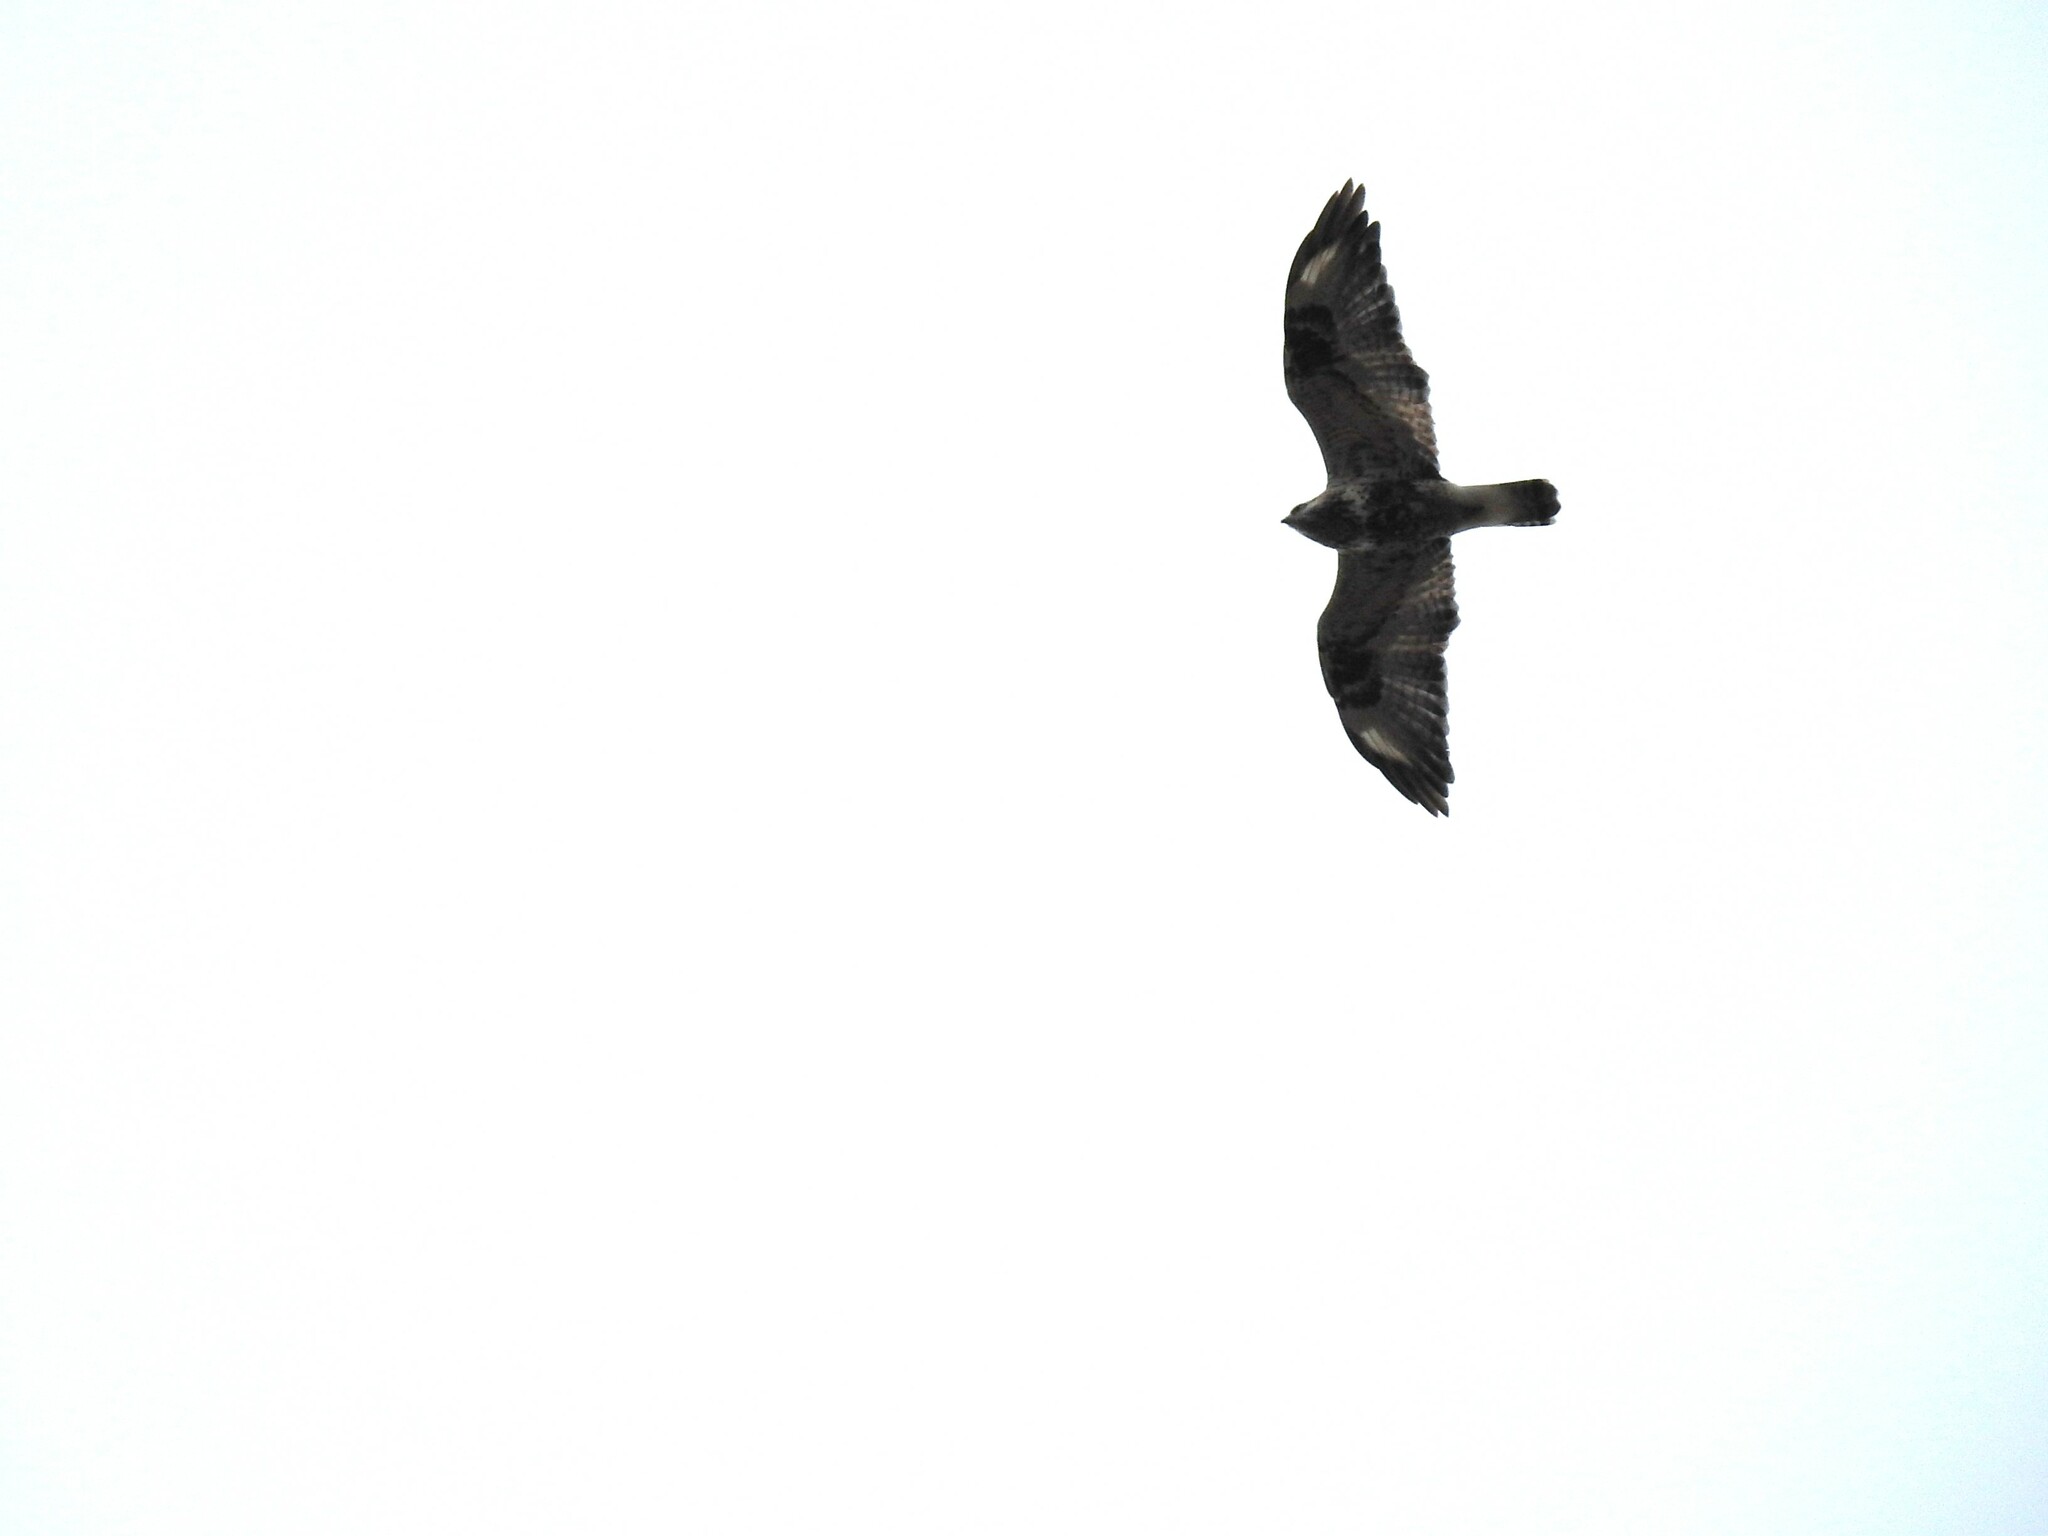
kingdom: Animalia
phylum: Chordata
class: Aves
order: Accipitriformes
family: Accipitridae
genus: Buteo
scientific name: Buteo lagopus
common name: Rough-legged buzzard
